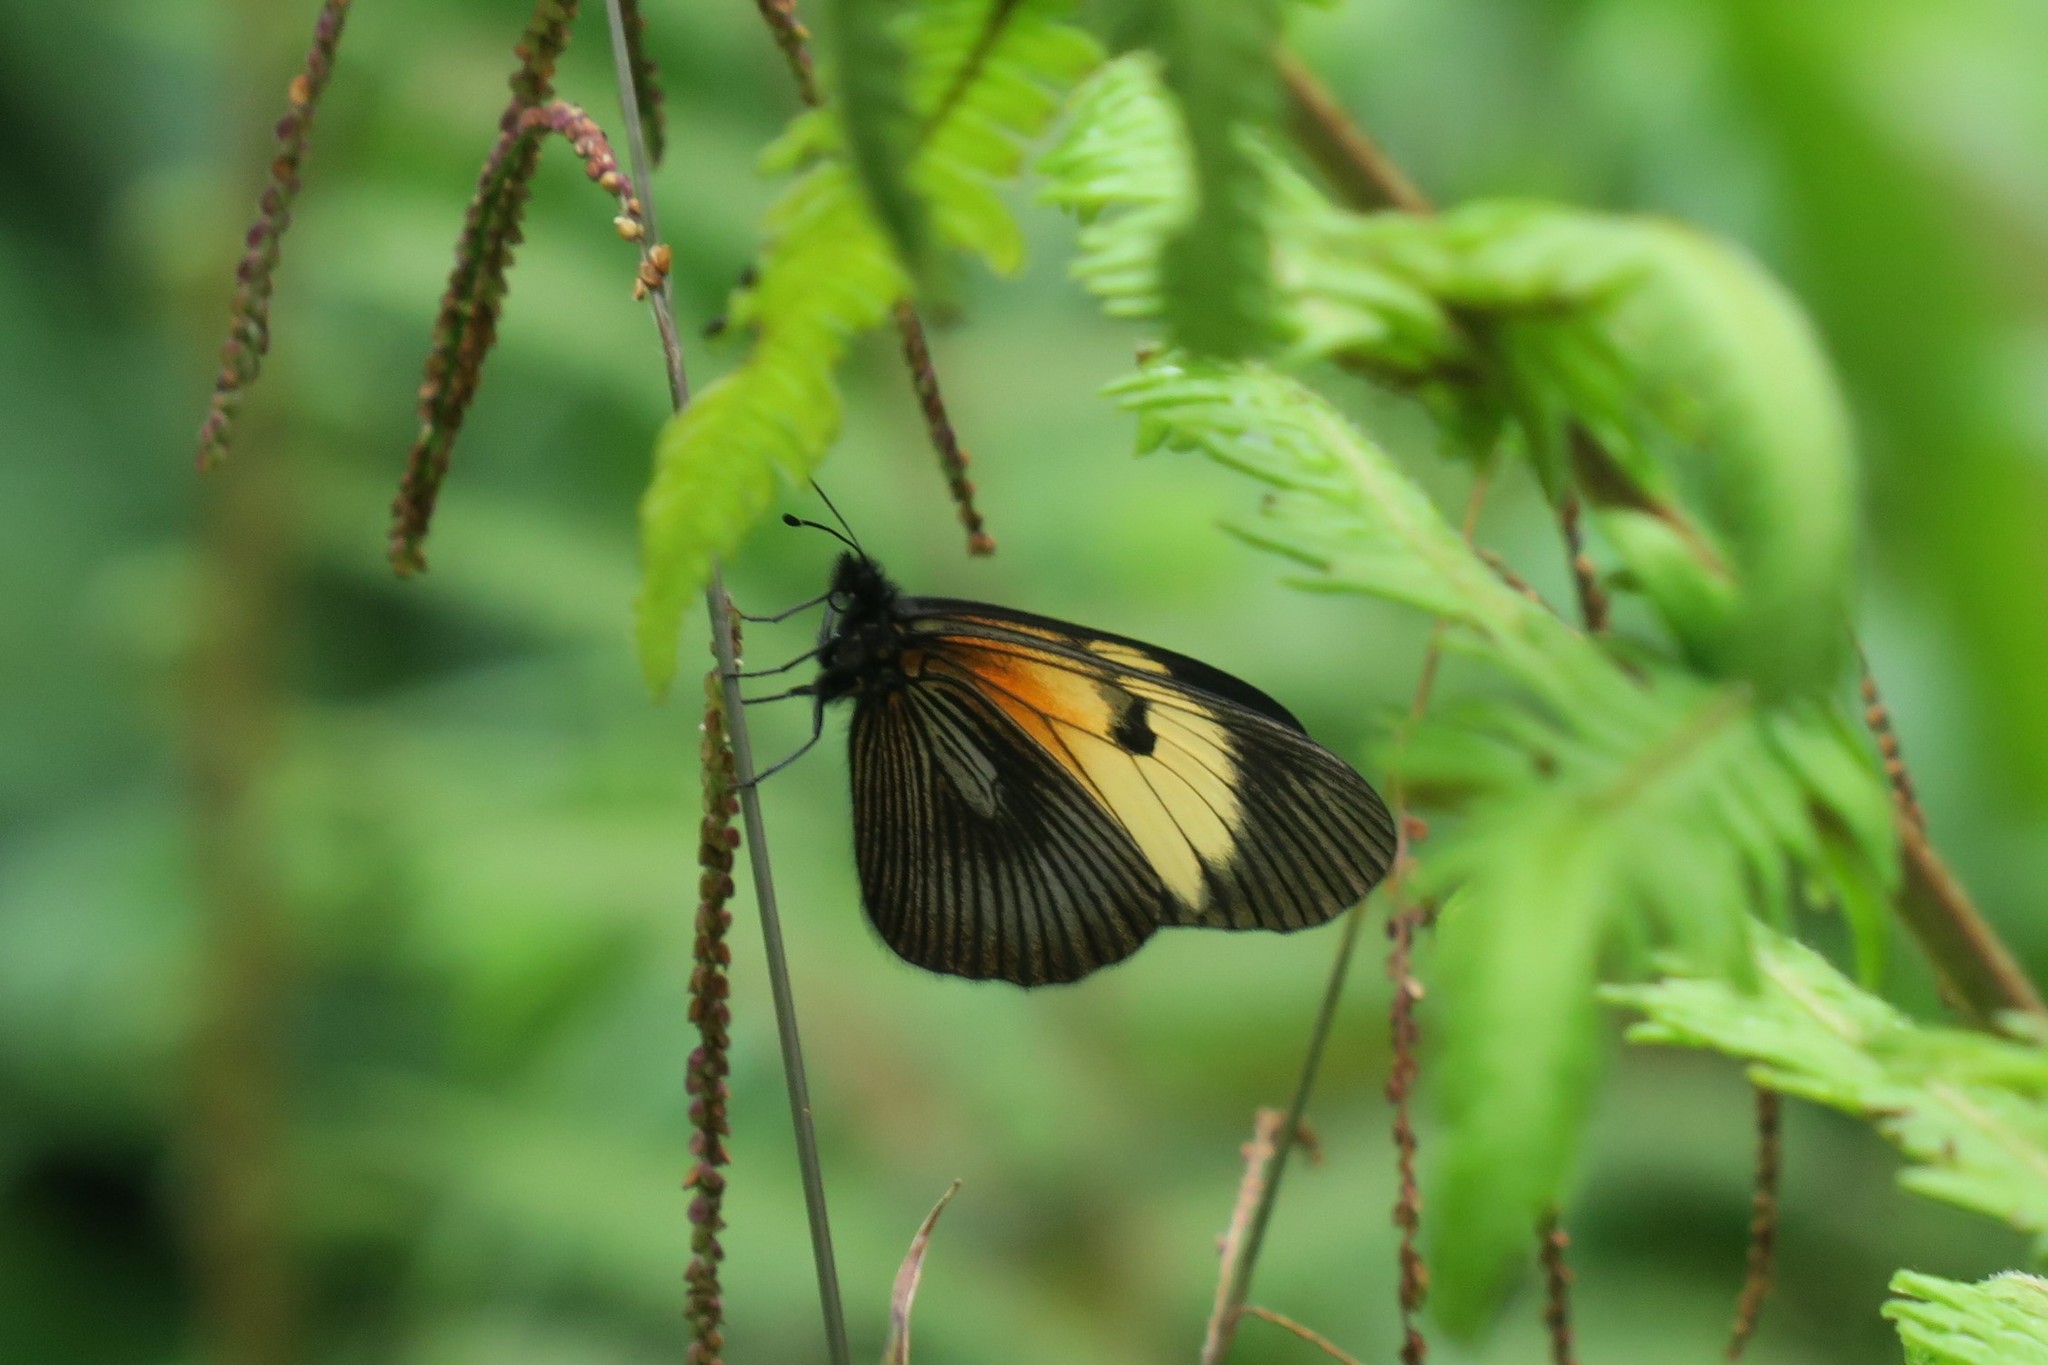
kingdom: Animalia
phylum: Arthropoda
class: Insecta
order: Lepidoptera
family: Nymphalidae
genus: Actinote
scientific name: Actinote stratonice
